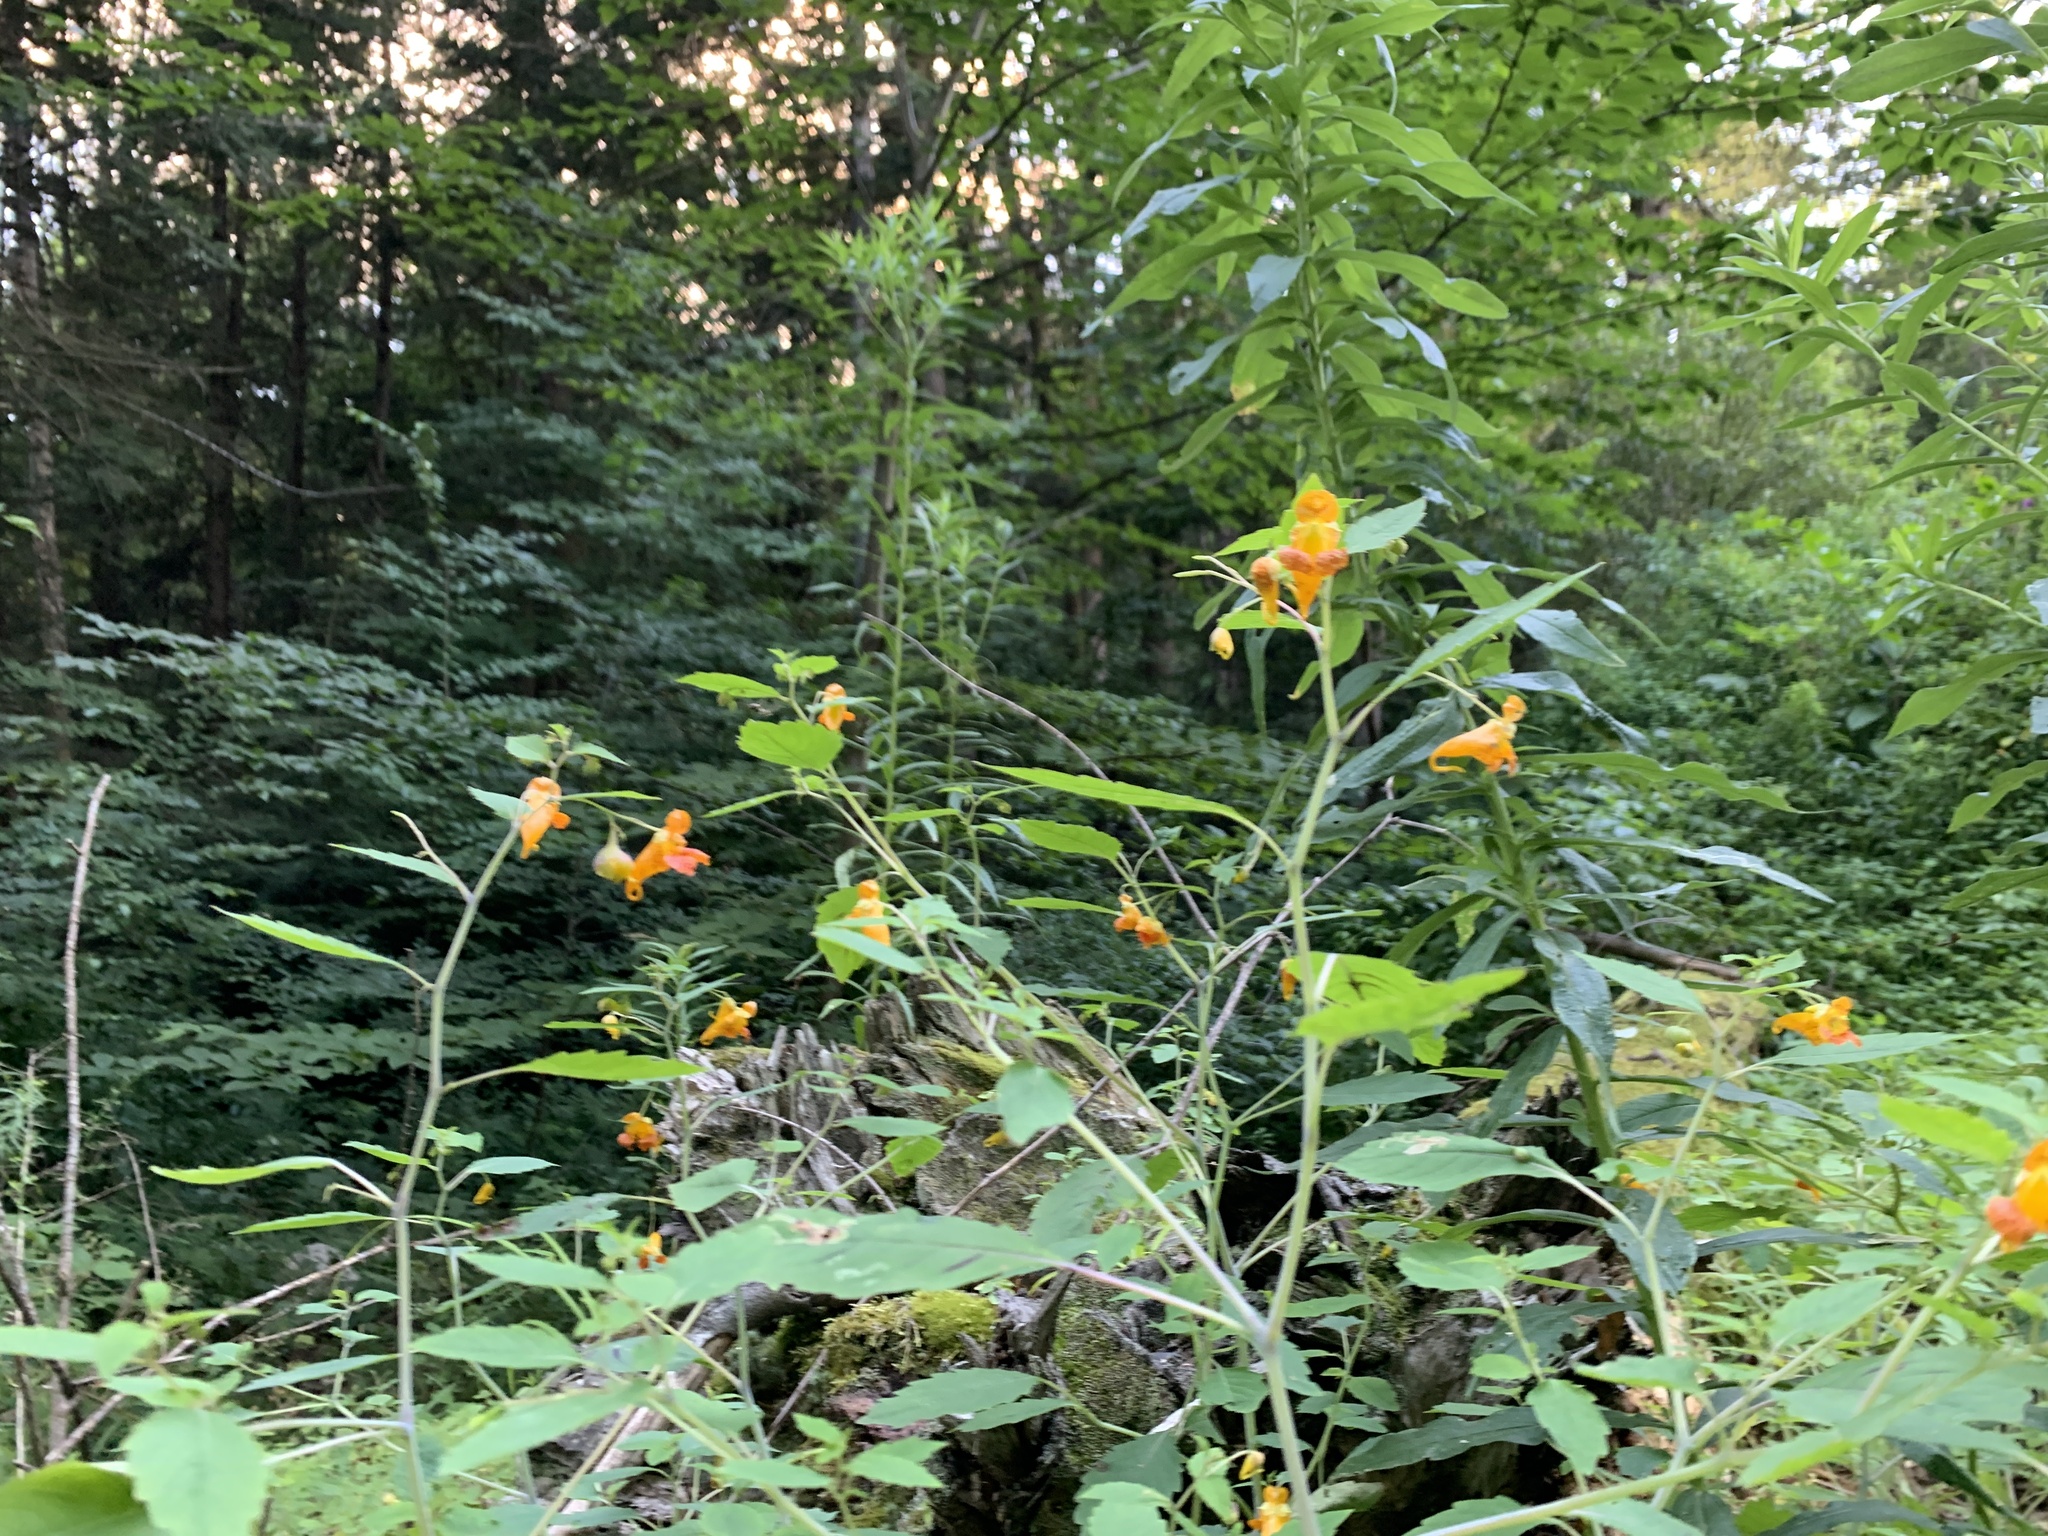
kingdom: Plantae
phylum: Tracheophyta
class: Magnoliopsida
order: Ericales
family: Balsaminaceae
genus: Impatiens
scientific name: Impatiens capensis
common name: Orange balsam
